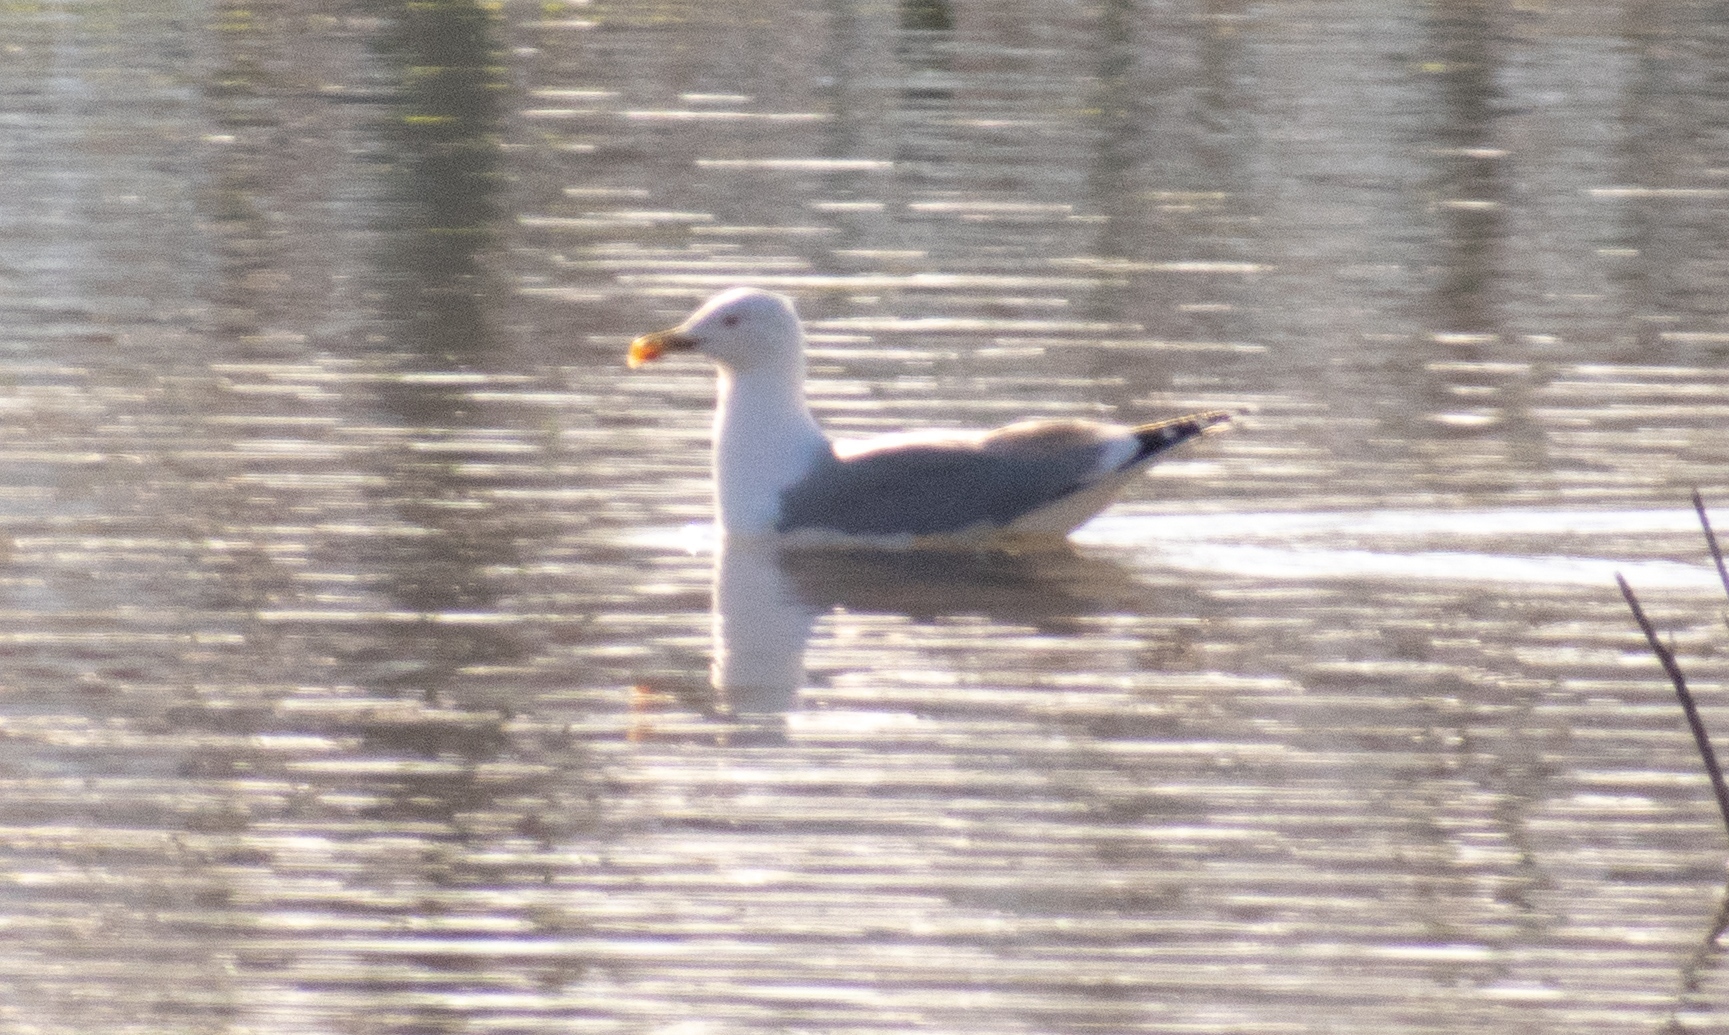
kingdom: Animalia
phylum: Chordata
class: Aves
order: Charadriiformes
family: Laridae
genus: Larus
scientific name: Larus michahellis
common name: Yellow-legged gull
